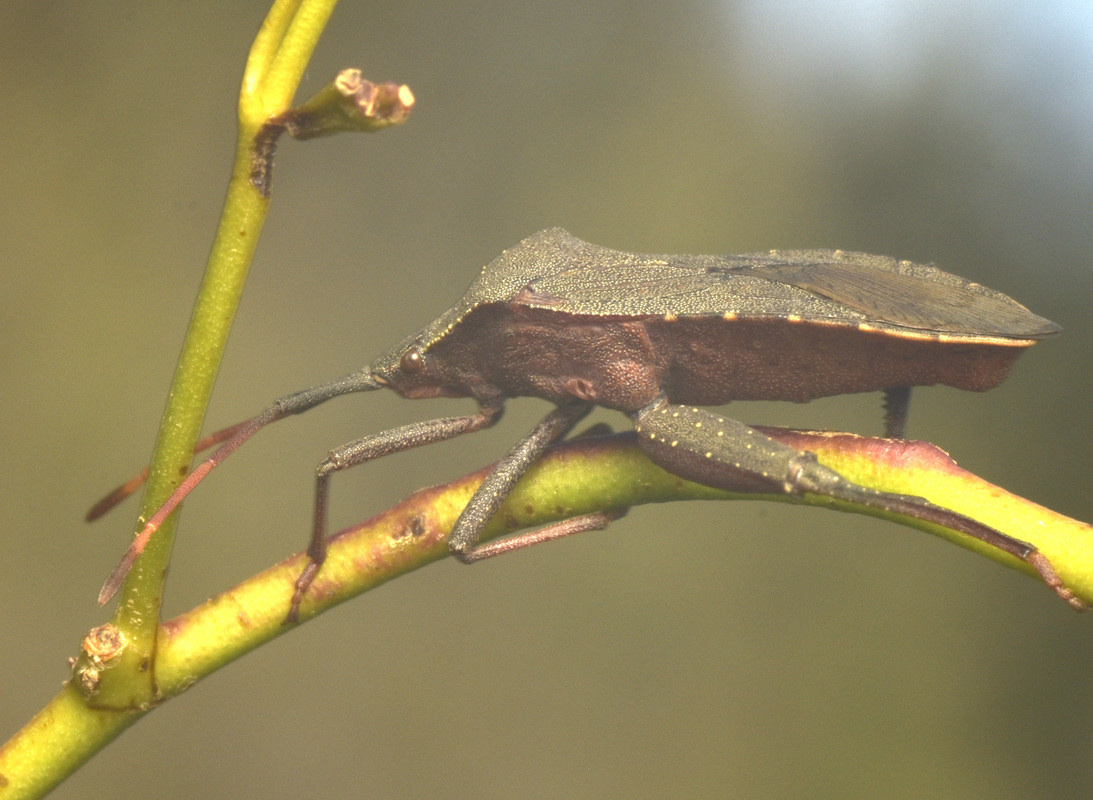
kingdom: Animalia
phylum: Arthropoda
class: Insecta
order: Hemiptera
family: Coreidae
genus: Amorbus
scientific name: Amorbus rubiginosus
